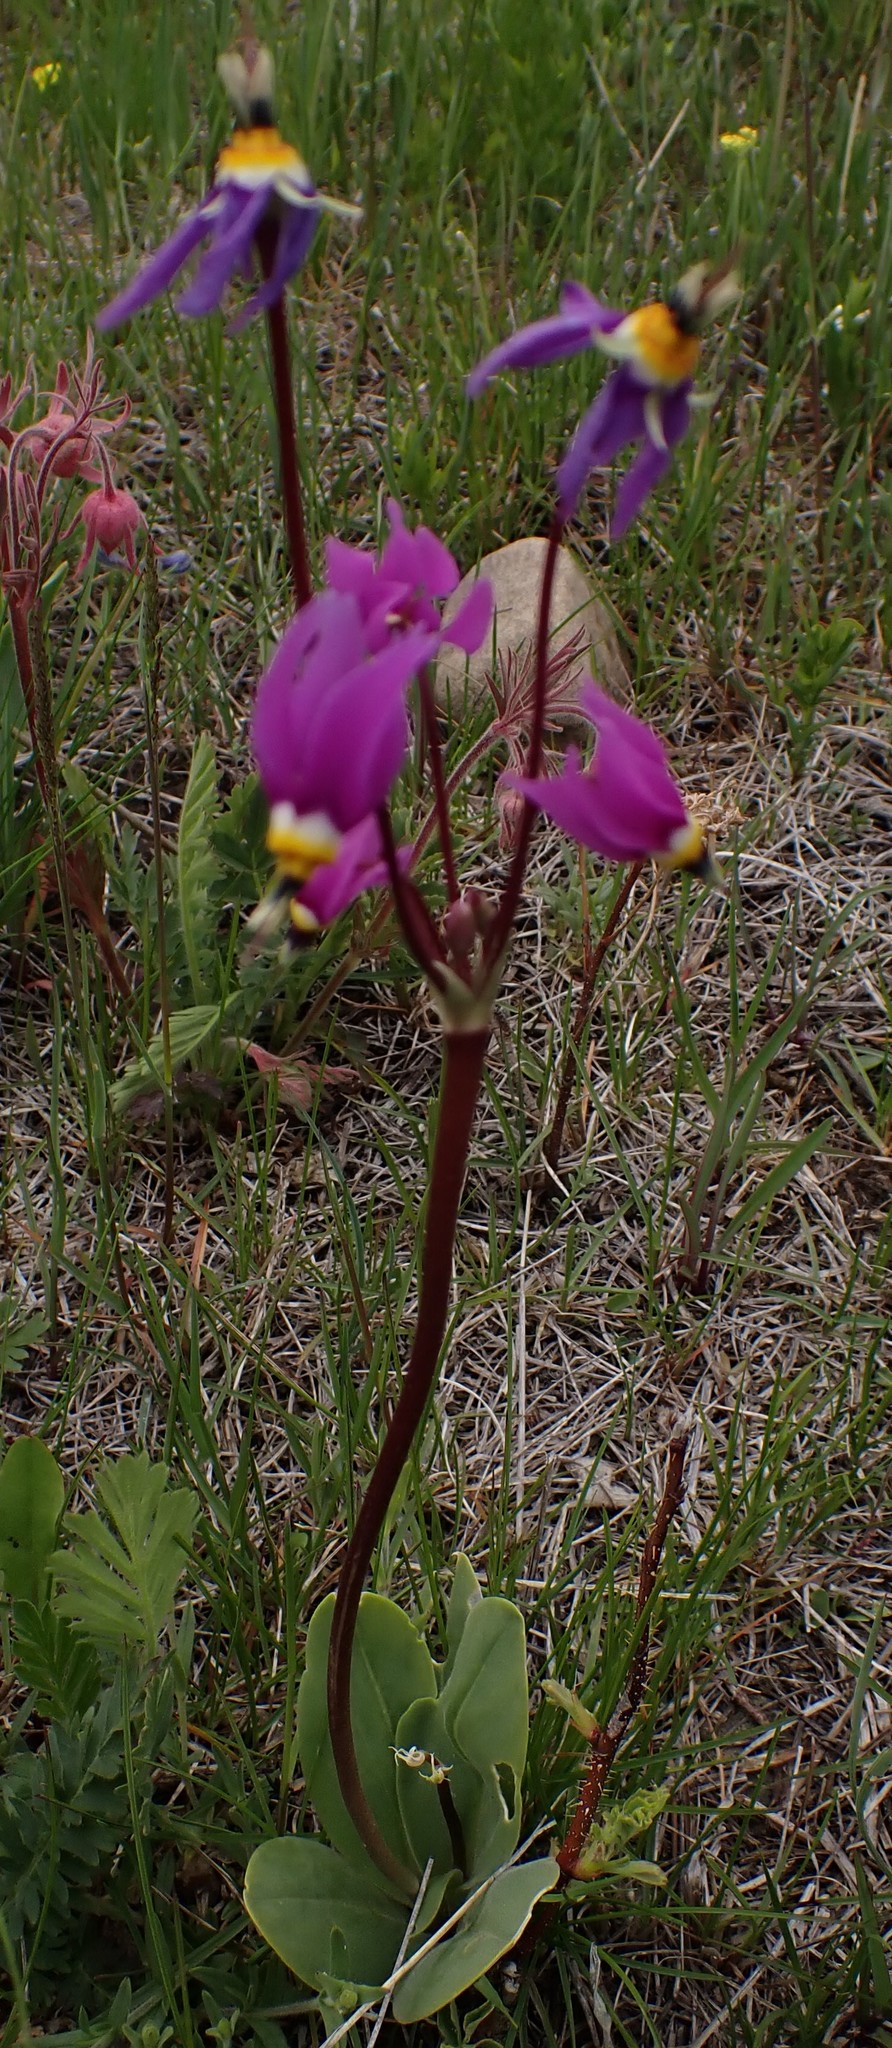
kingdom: Plantae
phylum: Tracheophyta
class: Magnoliopsida
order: Ericales
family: Primulaceae
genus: Dodecatheon
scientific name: Dodecatheon conjugens
